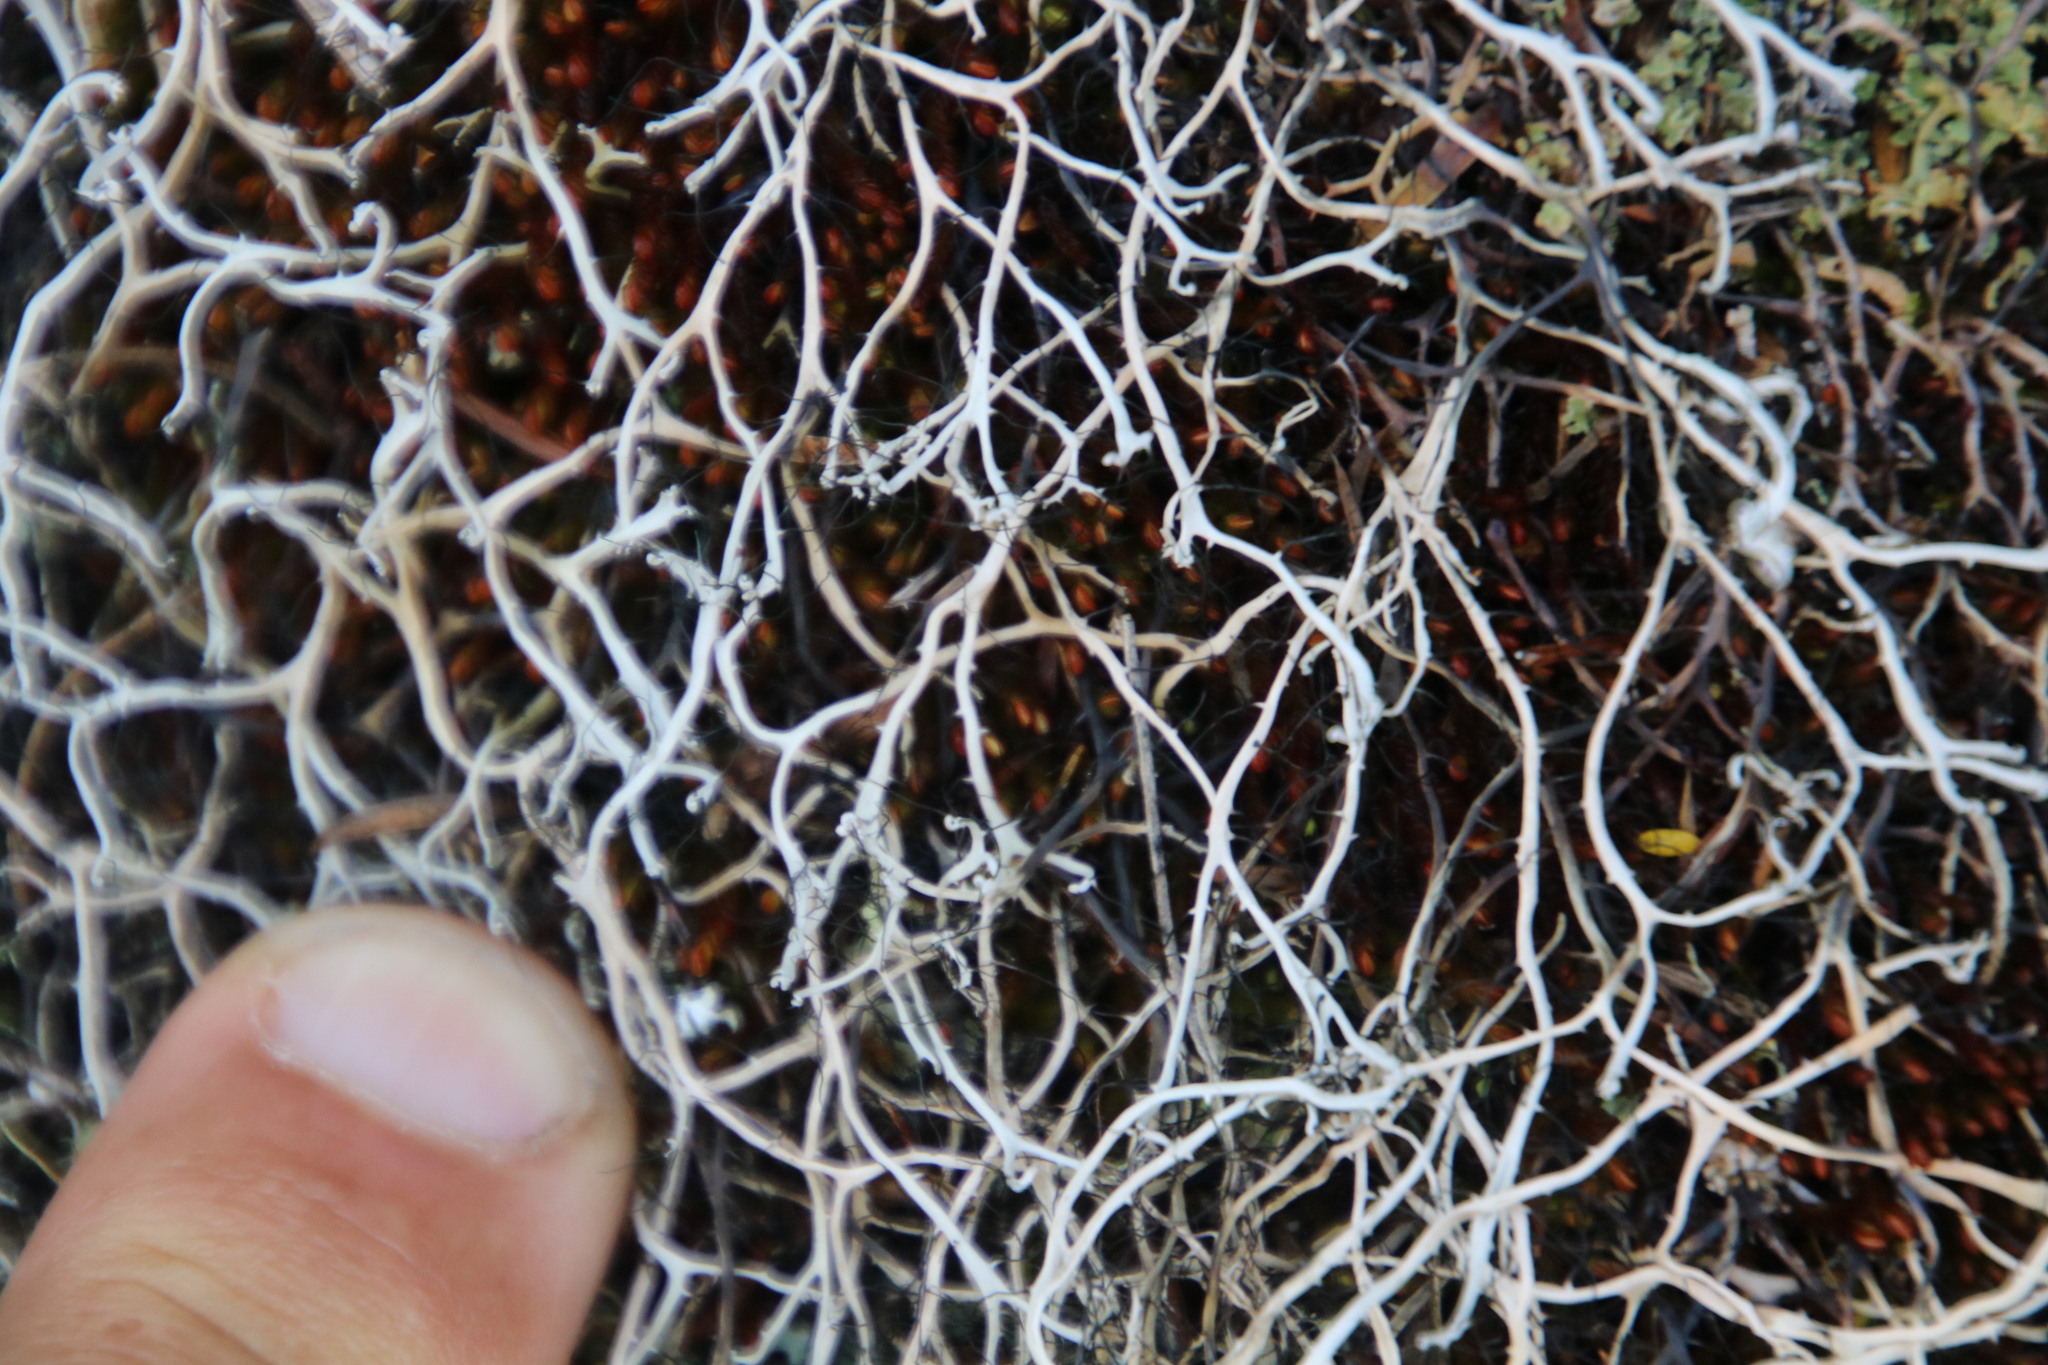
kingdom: Fungi
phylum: Ascomycota
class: Lecanoromycetes
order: Caliciales
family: Physciaceae
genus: Leucodermia
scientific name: Leucodermia leucomelos
